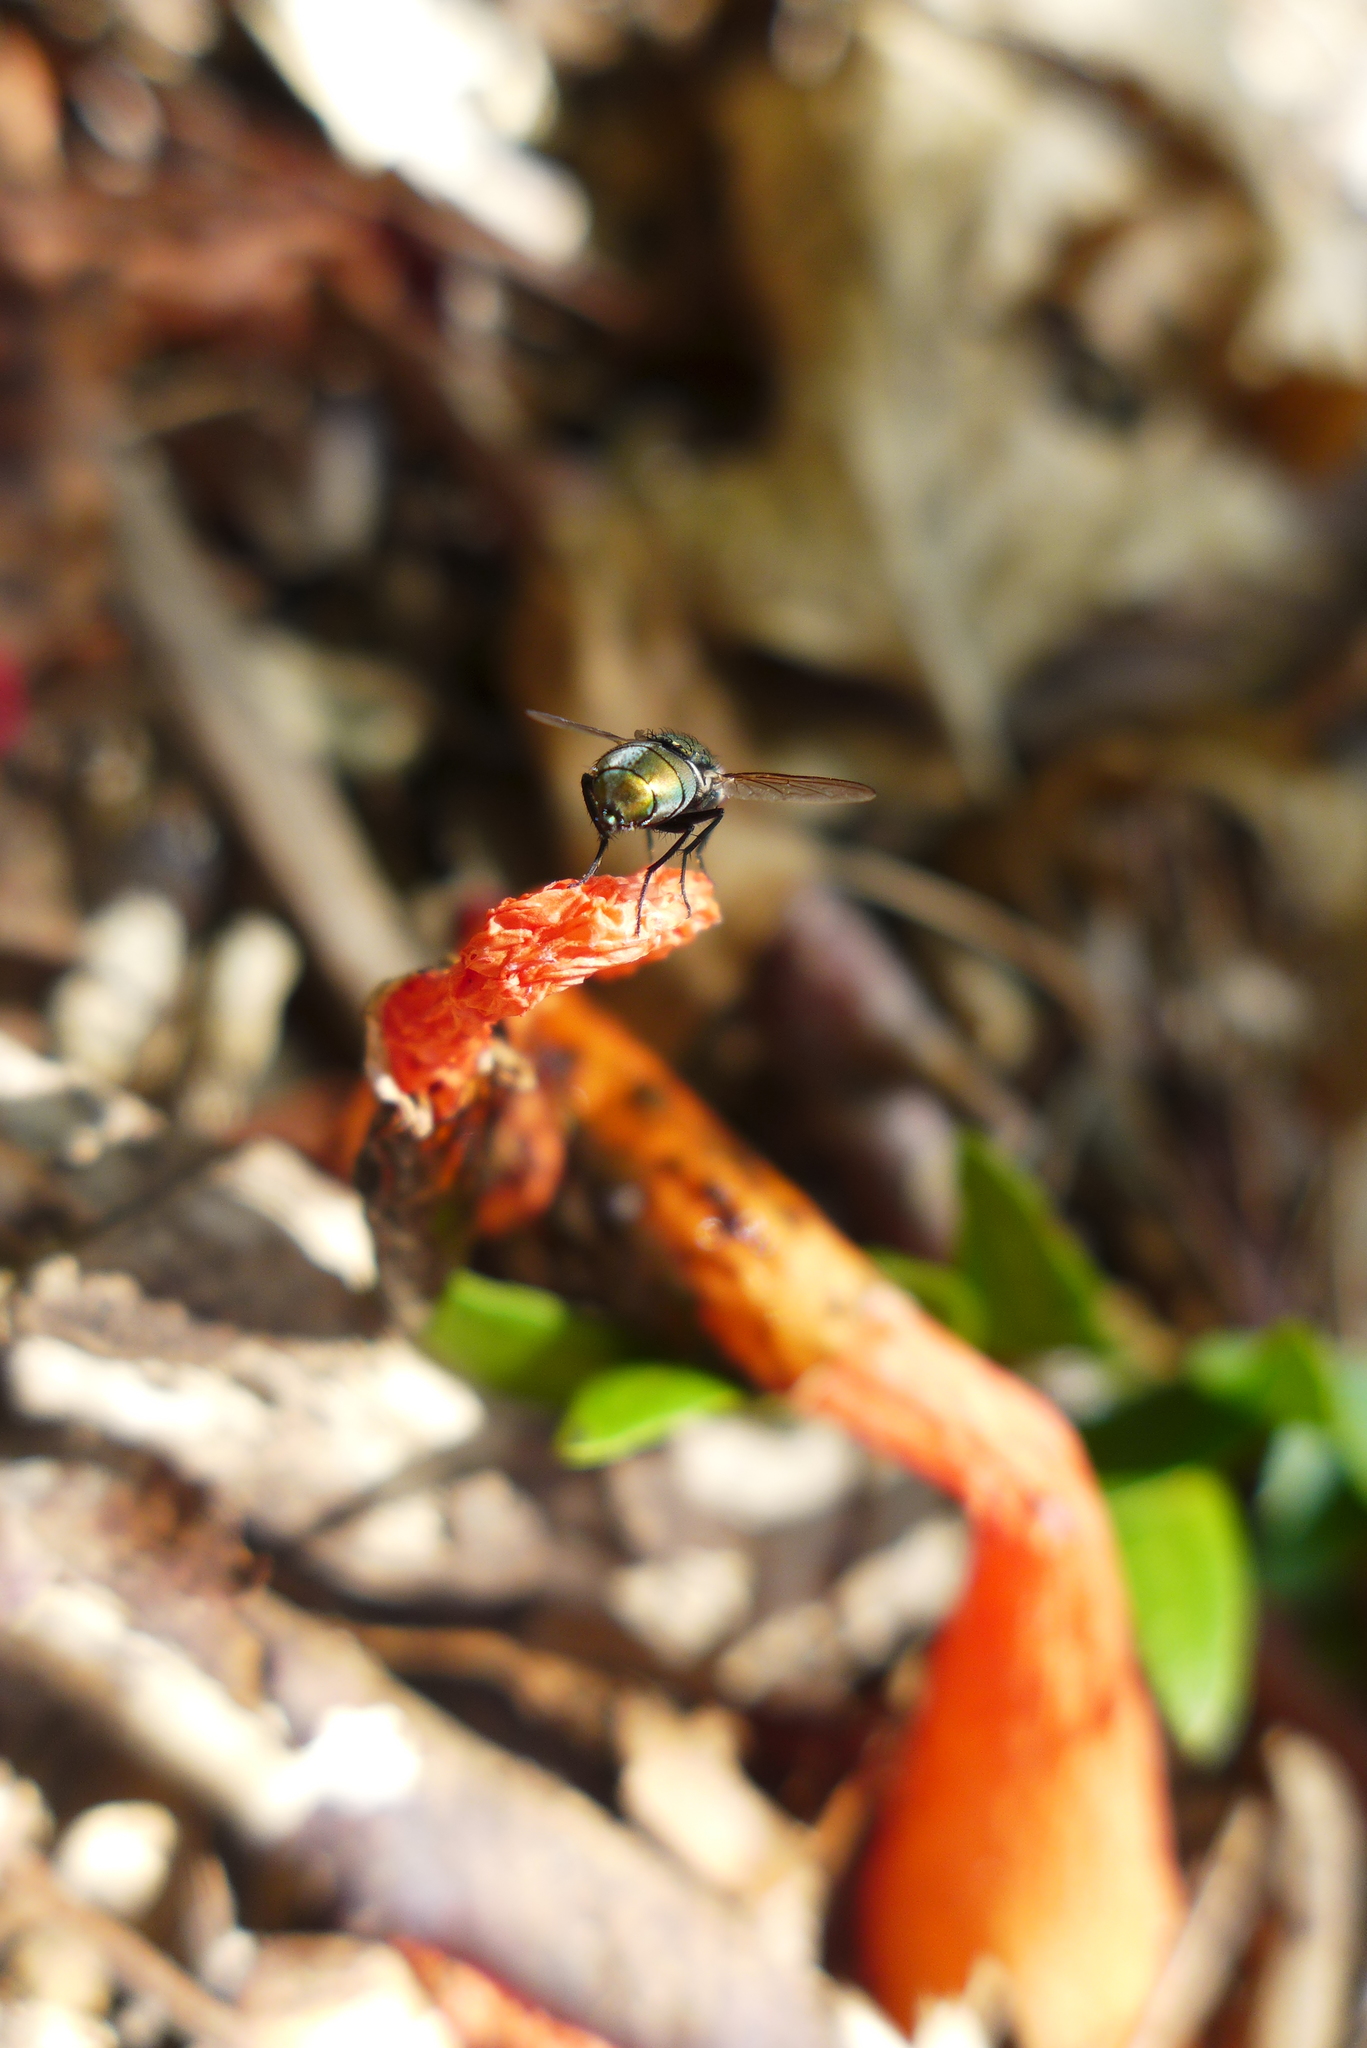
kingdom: Animalia
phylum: Arthropoda
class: Insecta
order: Diptera
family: Calliphoridae
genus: Lucilia
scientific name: Lucilia sericata
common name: Blow fly
